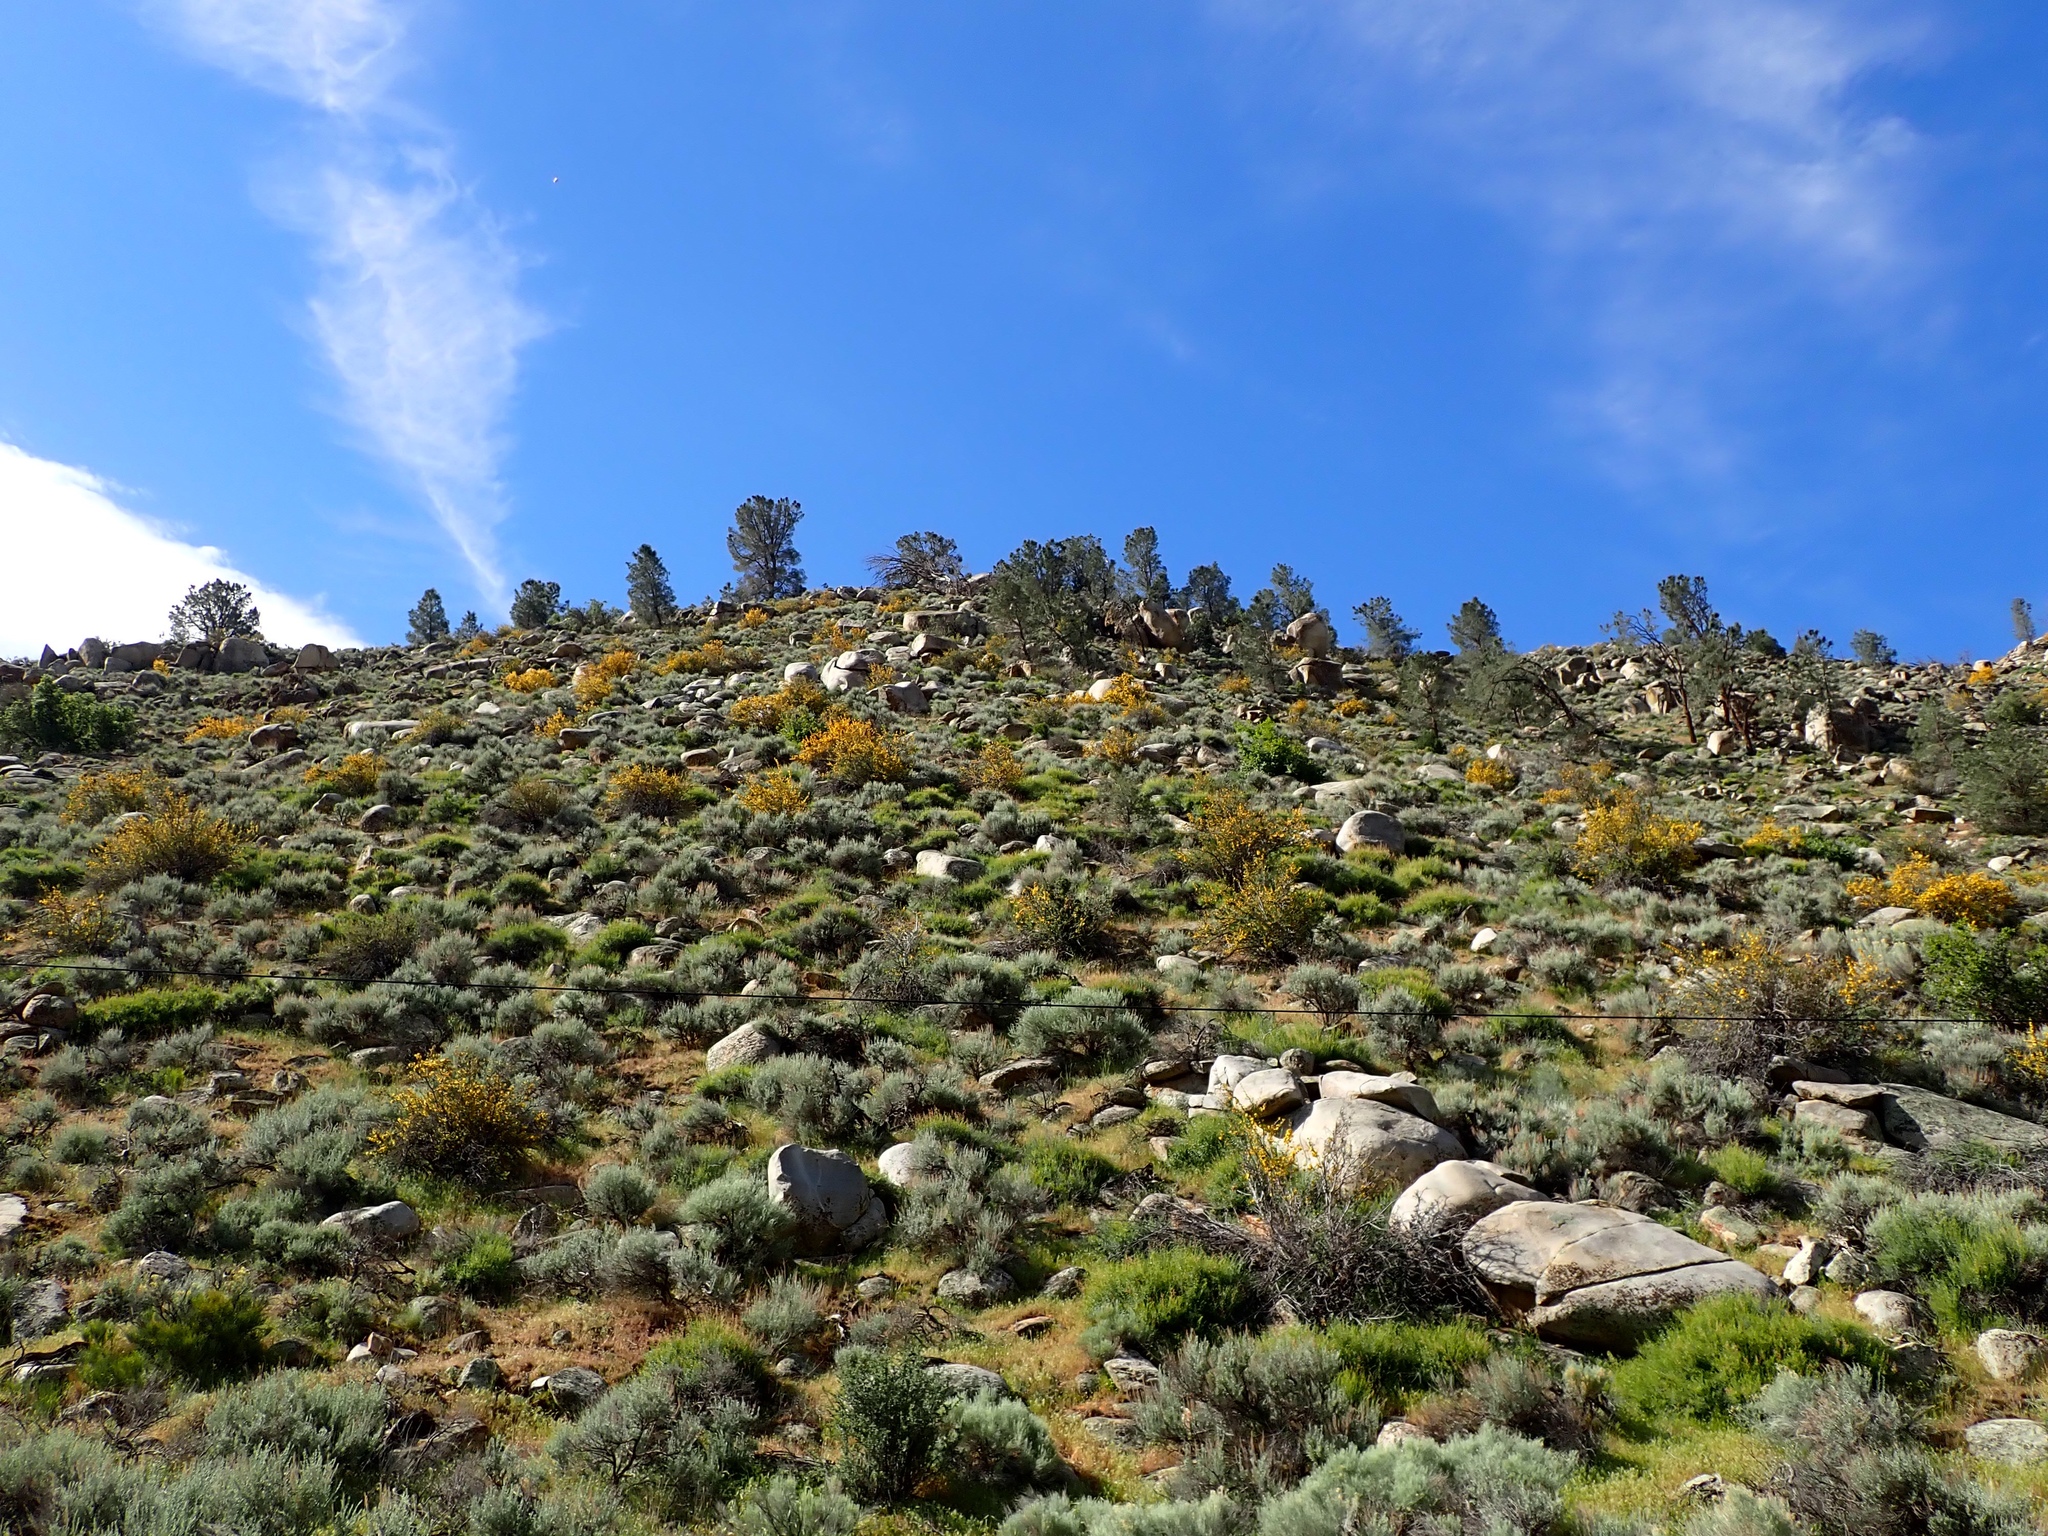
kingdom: Plantae
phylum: Tracheophyta
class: Magnoliopsida
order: Malvales
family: Malvaceae
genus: Fremontodendron
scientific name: Fremontodendron californicum
